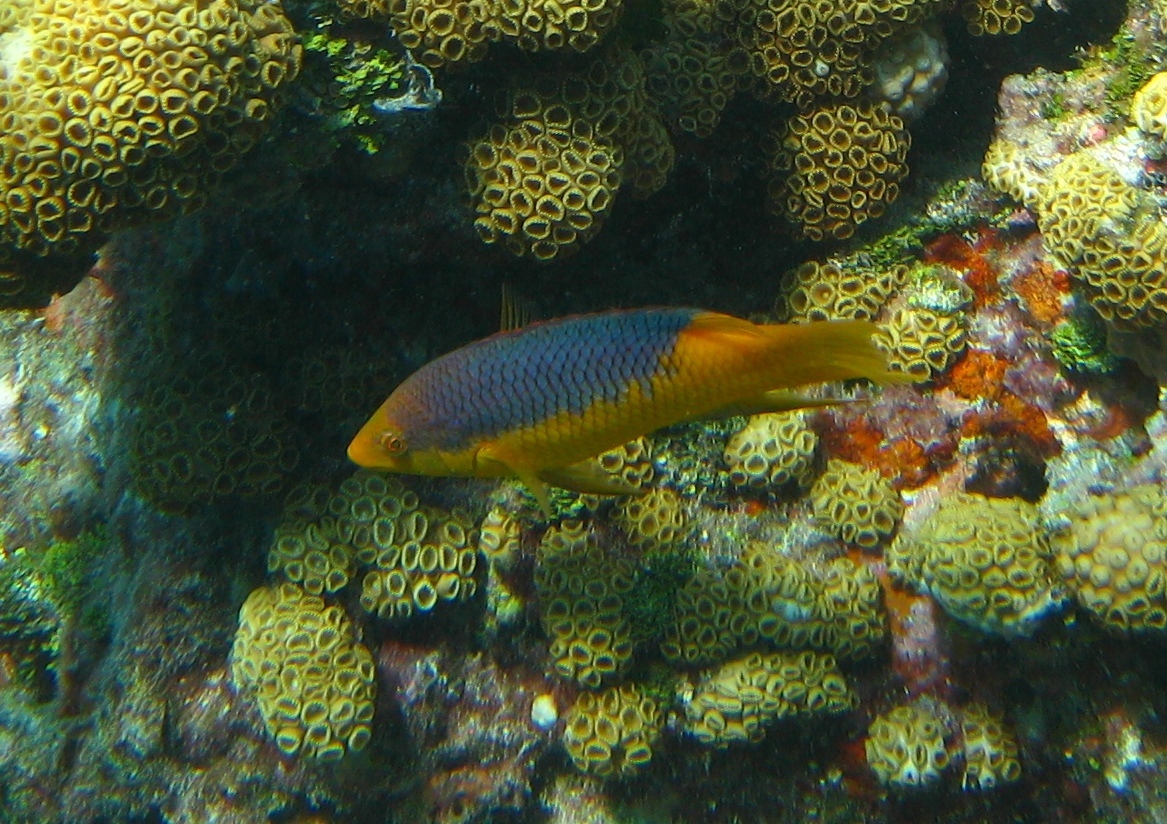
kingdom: Animalia
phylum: Chordata
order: Perciformes
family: Labridae
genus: Bodianus
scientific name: Bodianus rufus
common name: Spanish hogfish
